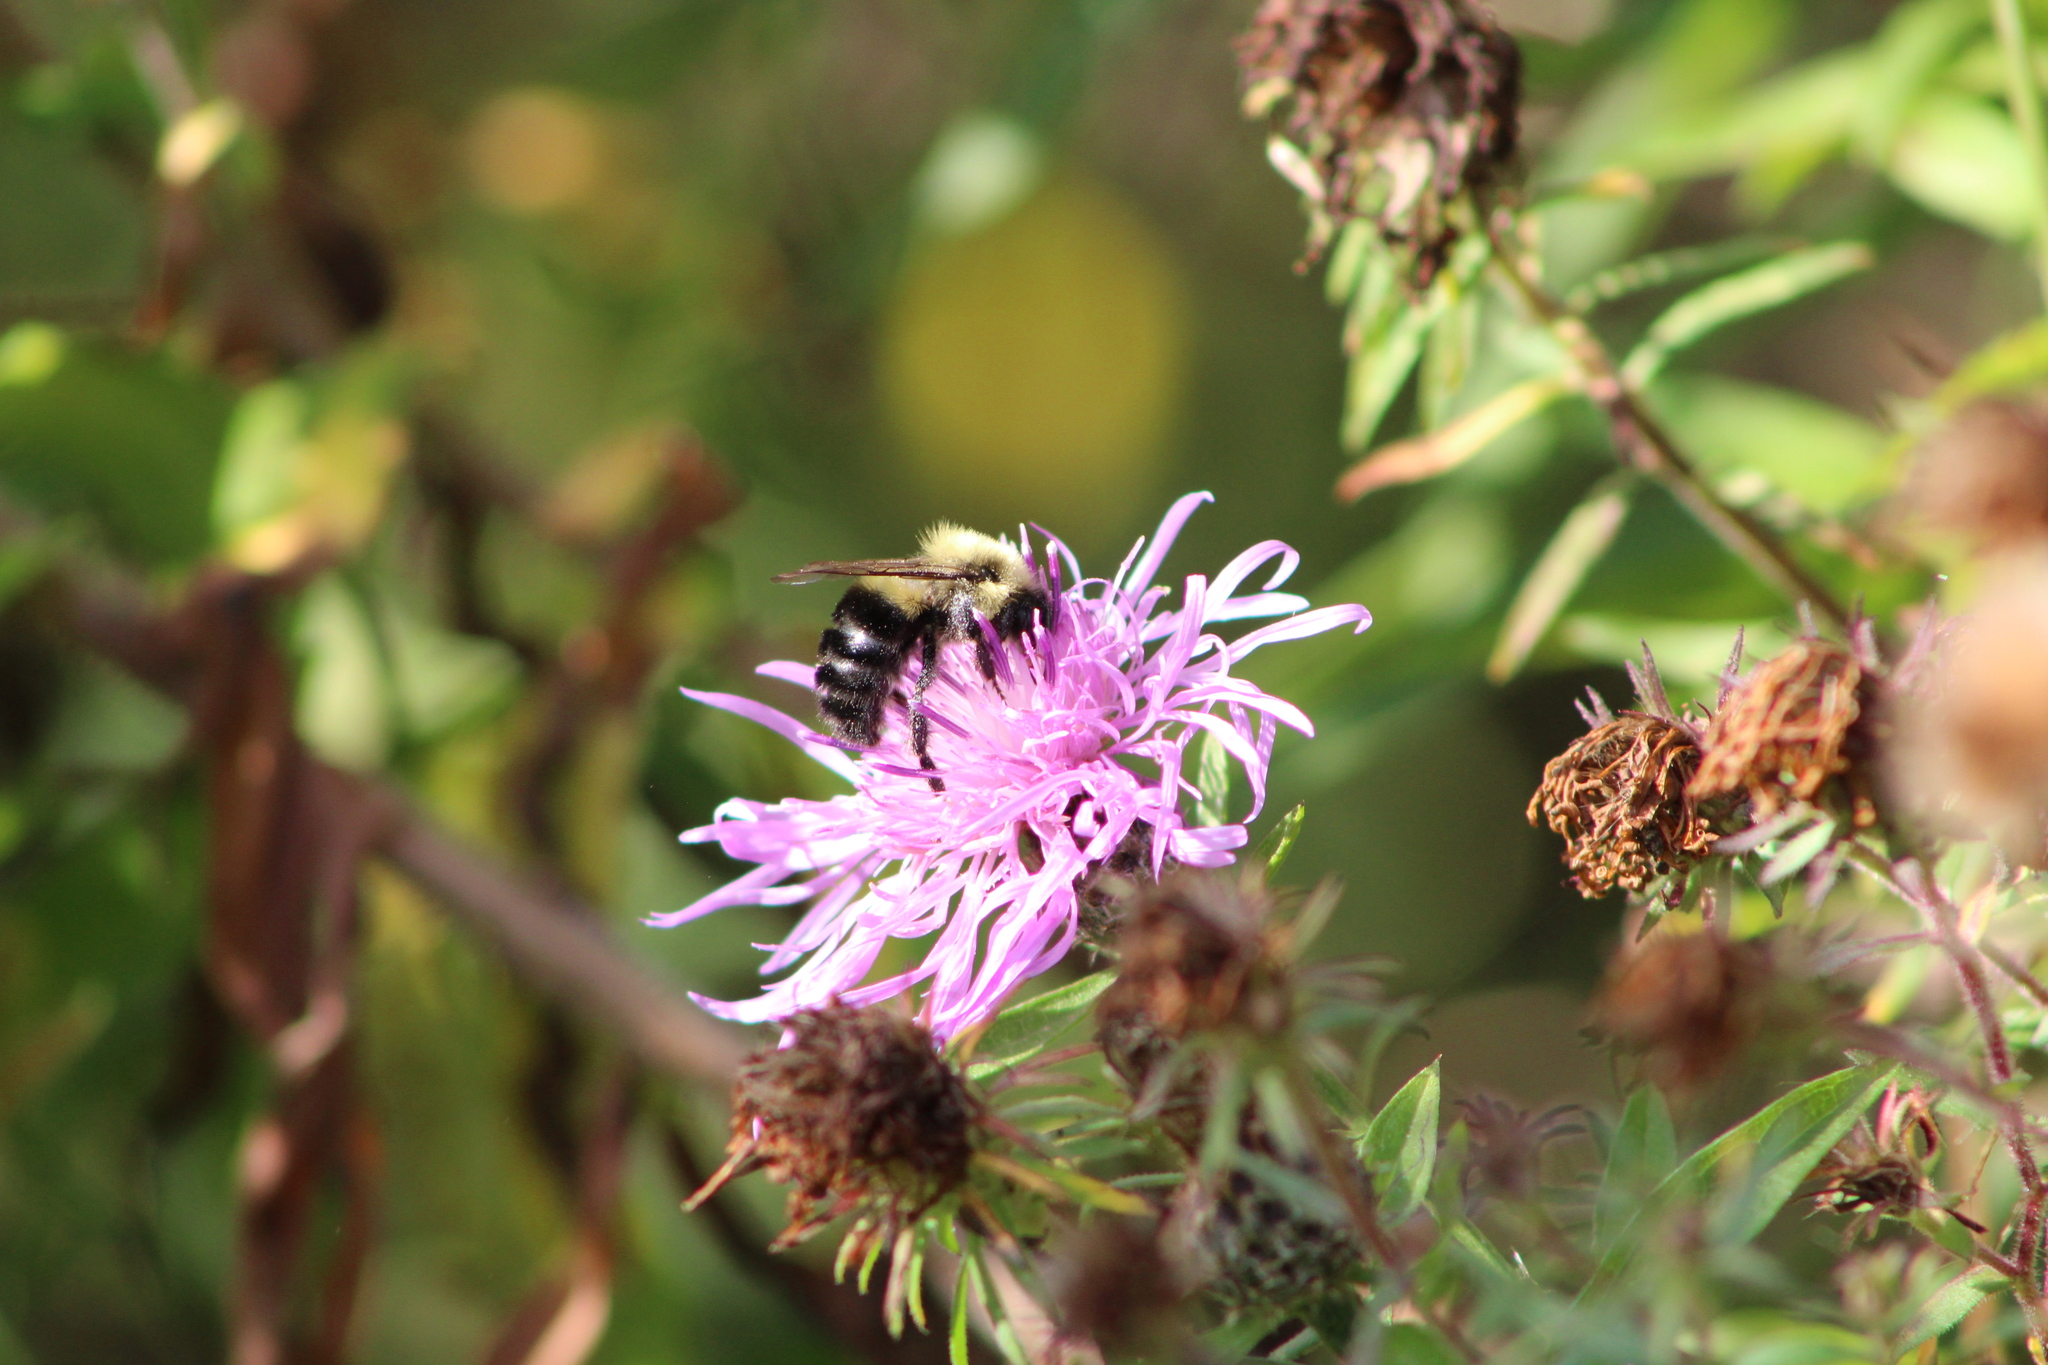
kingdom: Animalia
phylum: Arthropoda
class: Insecta
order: Hymenoptera
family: Apidae
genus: Bombus
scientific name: Bombus impatiens
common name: Common eastern bumble bee
